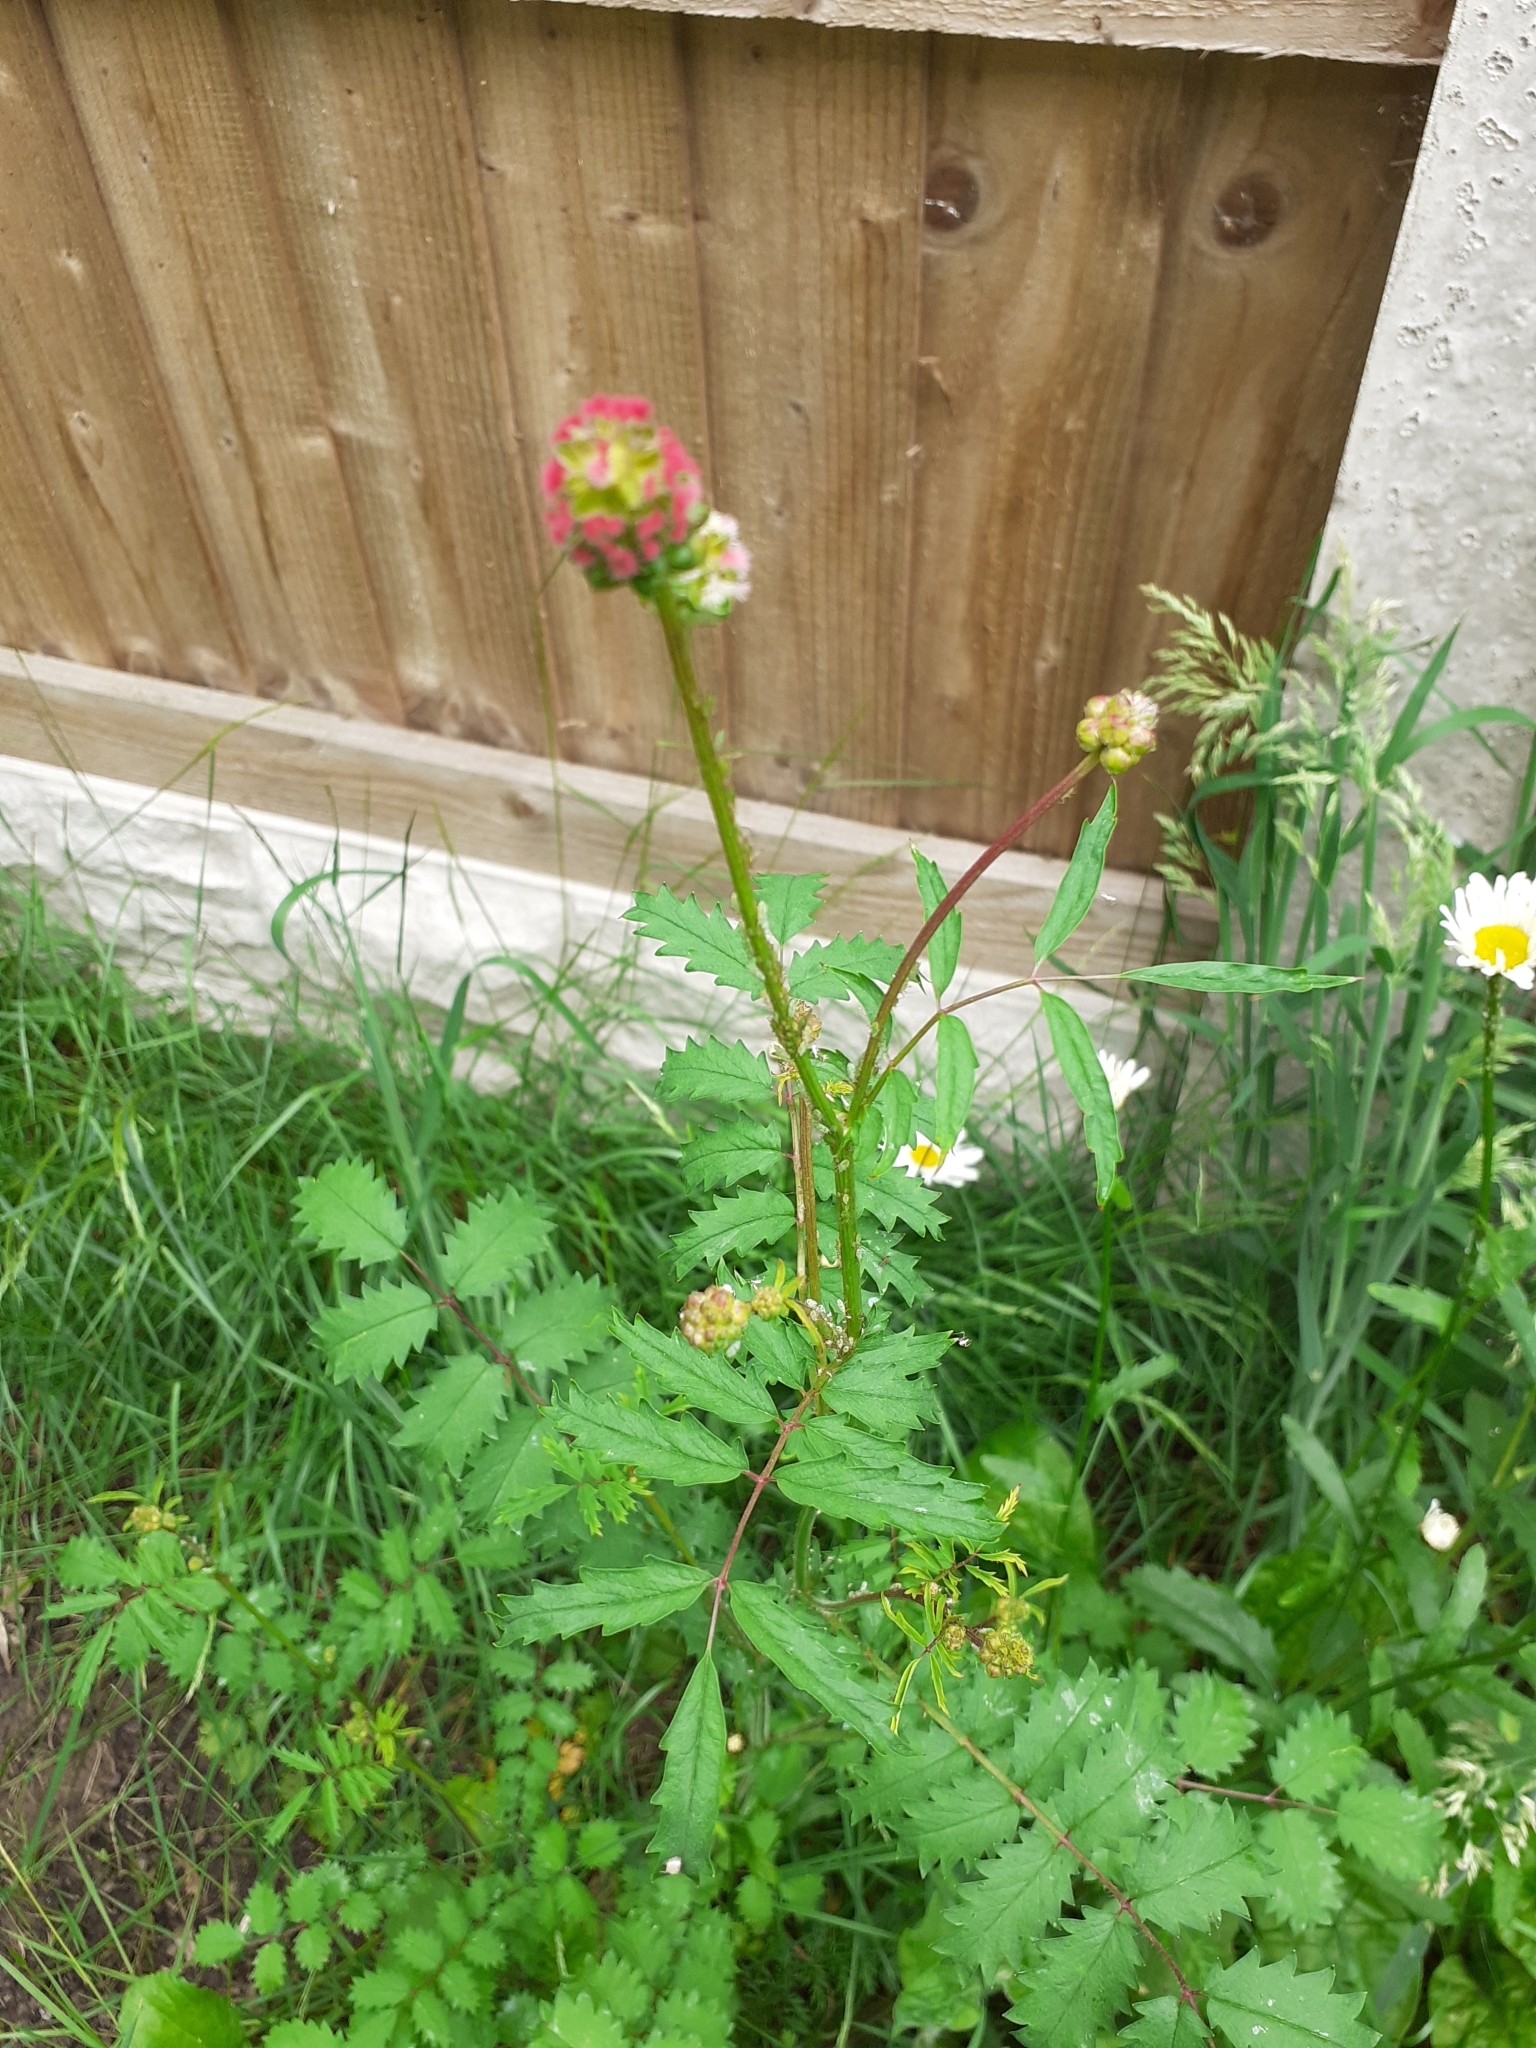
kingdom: Plantae
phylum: Tracheophyta
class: Magnoliopsida
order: Rosales
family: Rosaceae
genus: Poterium
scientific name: Poterium sanguisorba
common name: Salad burnet
